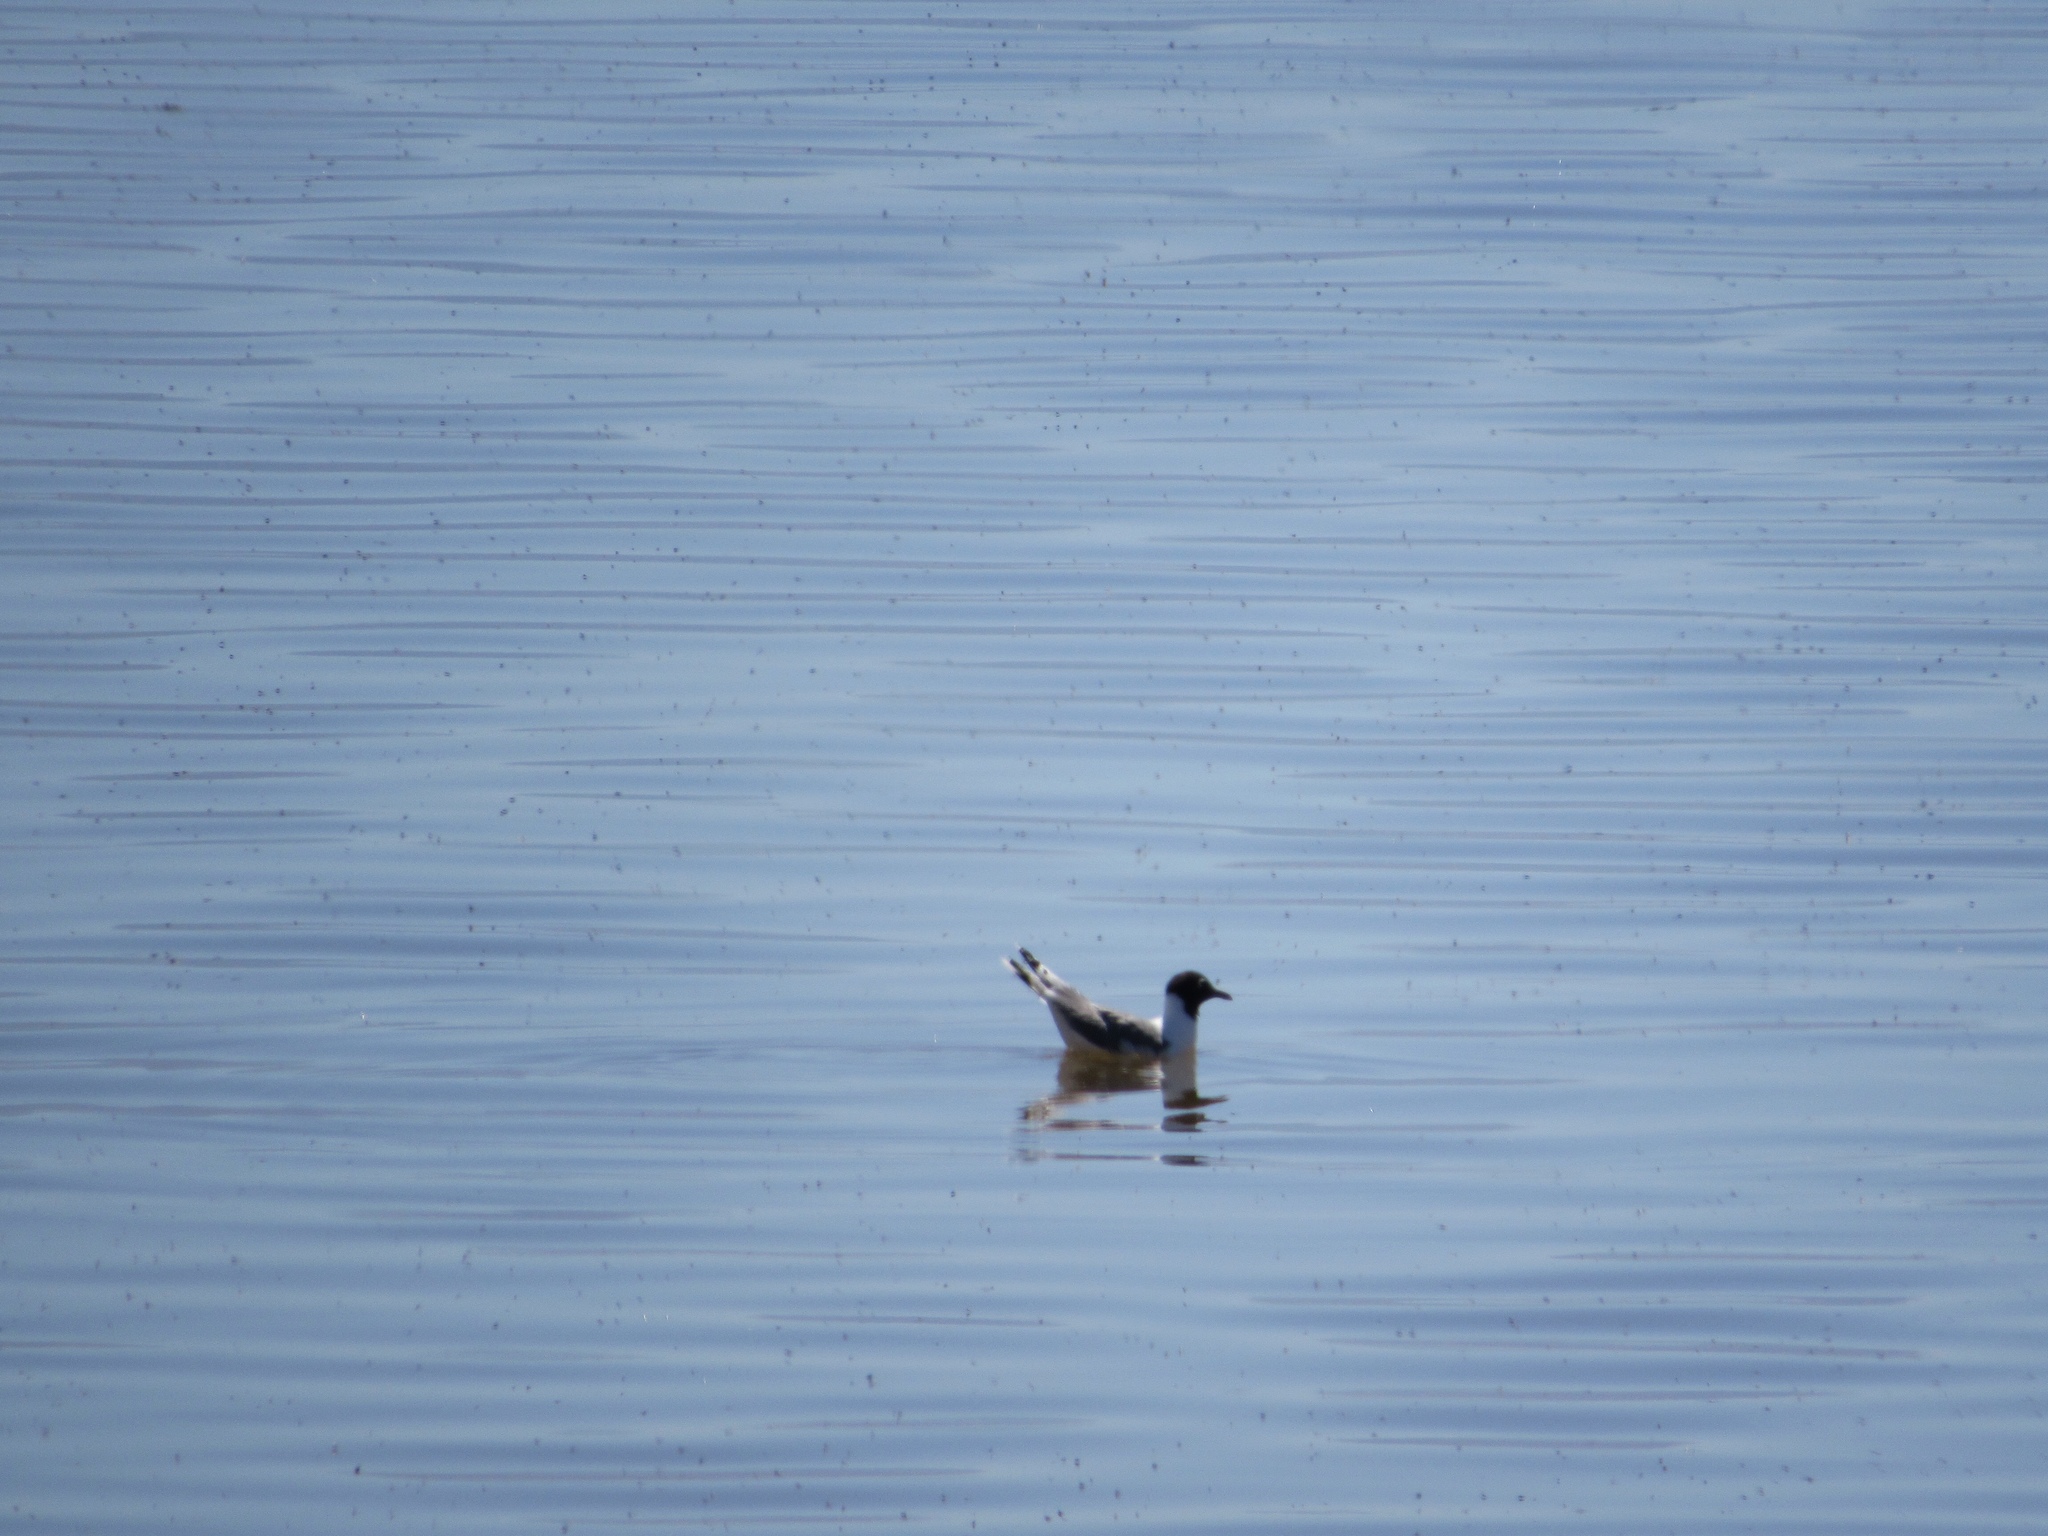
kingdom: Animalia
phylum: Chordata
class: Aves
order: Charadriiformes
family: Laridae
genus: Chroicocephalus
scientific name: Chroicocephalus philadelphia
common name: Bonaparte's gull
